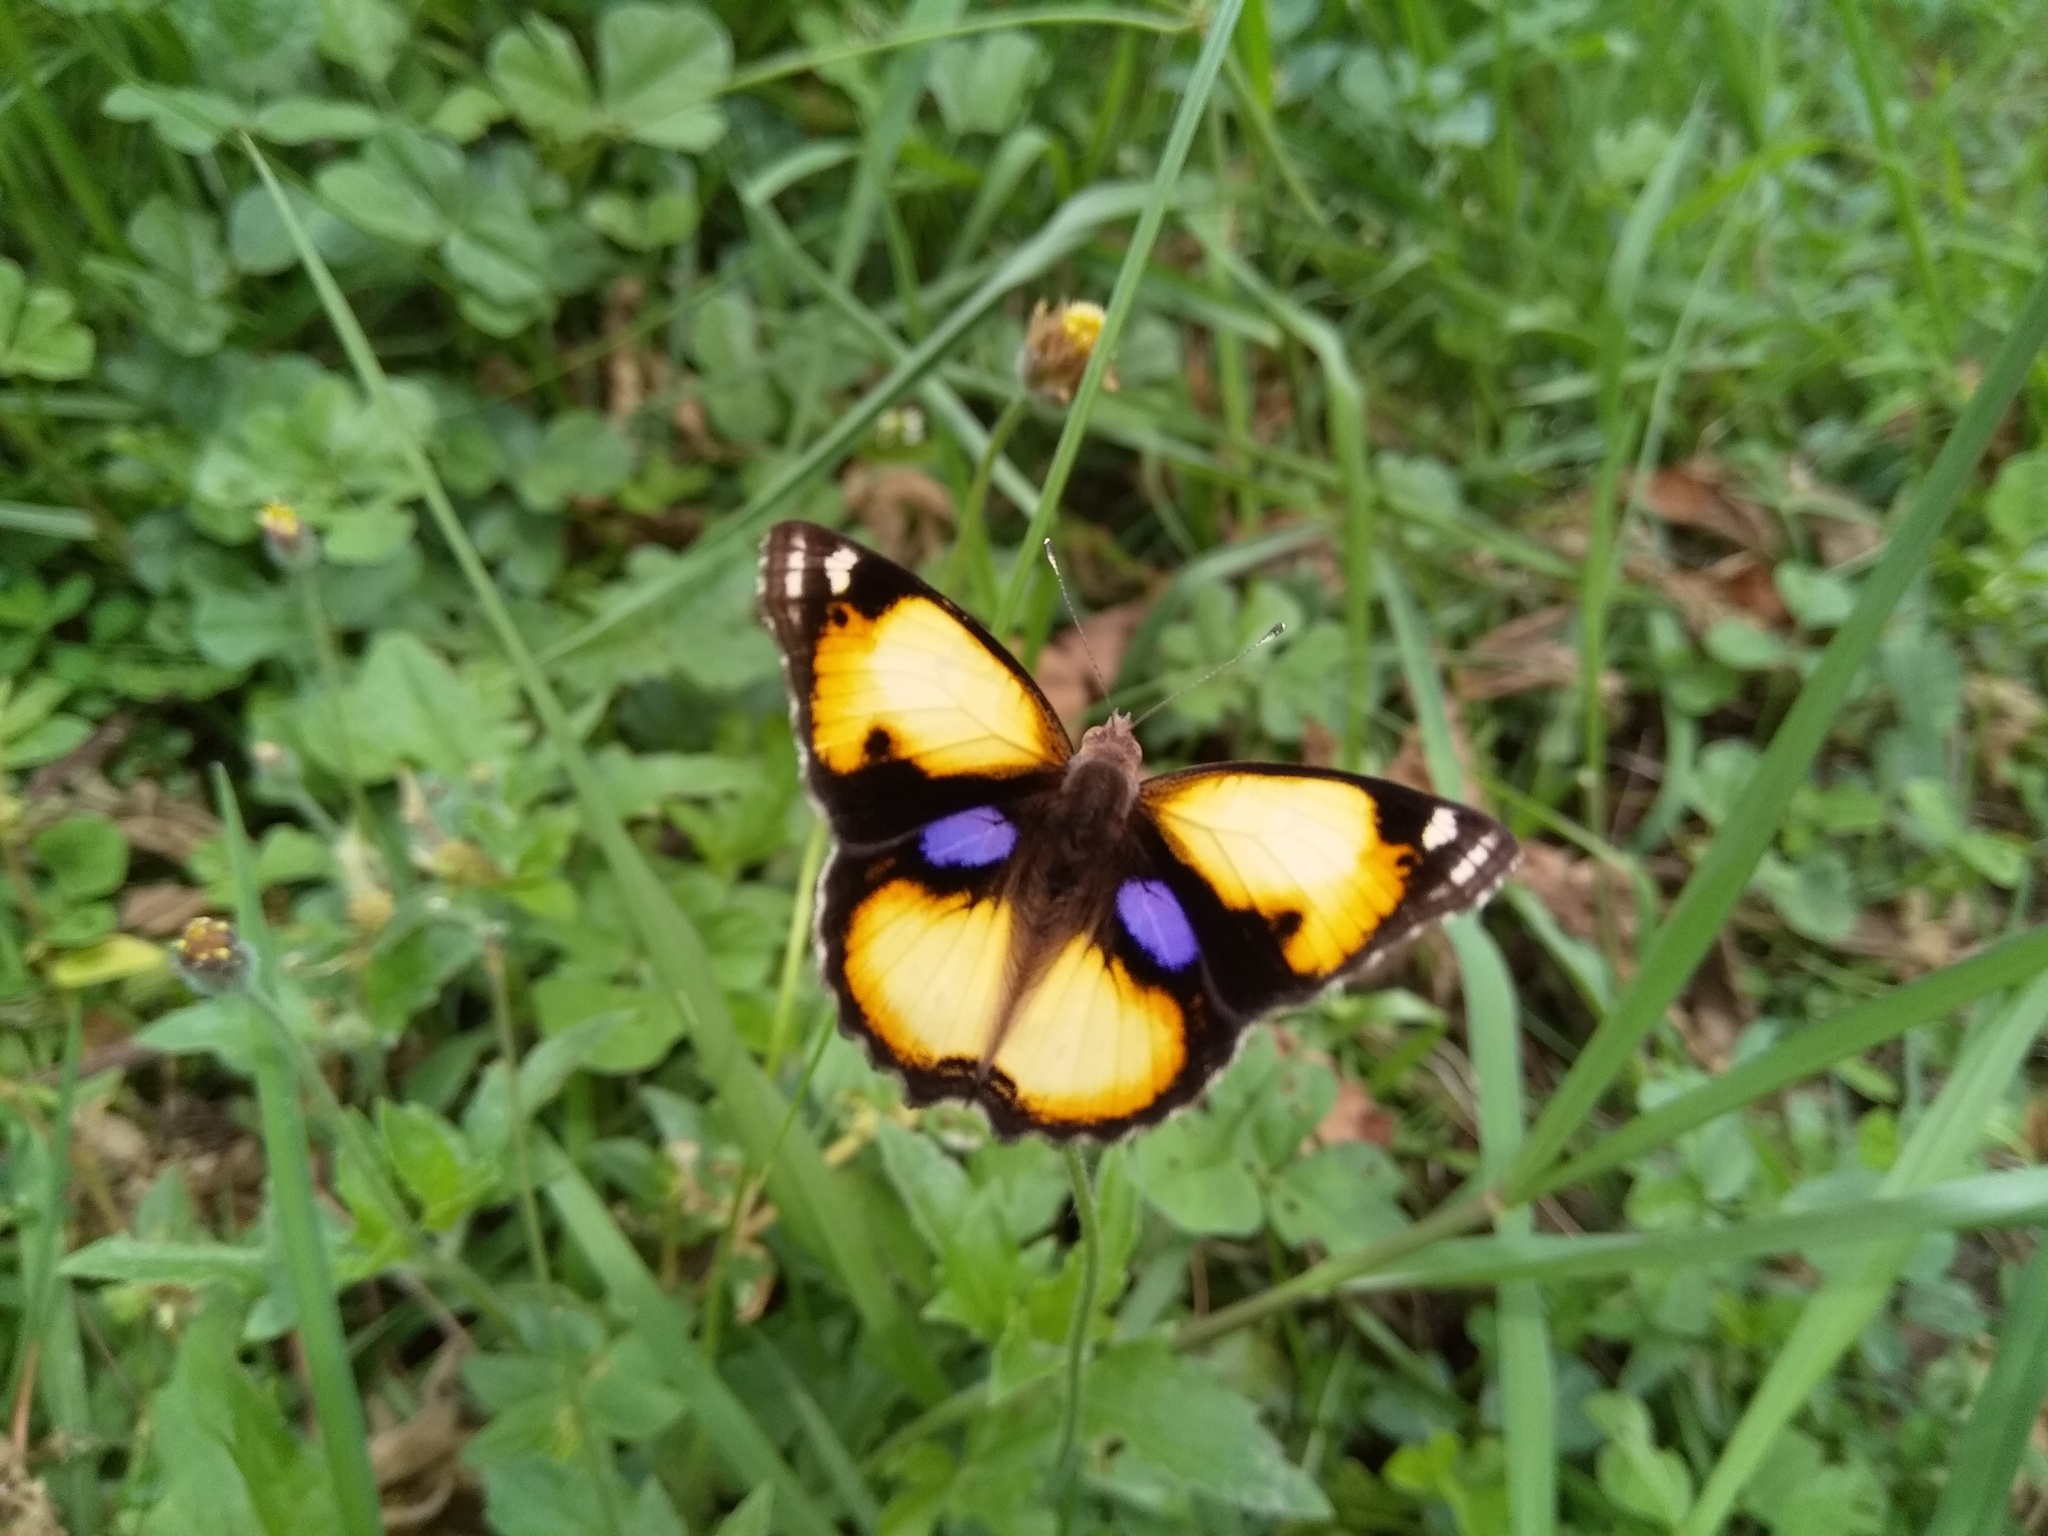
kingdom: Animalia
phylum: Arthropoda
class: Insecta
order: Lepidoptera
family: Nymphalidae
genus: Junonia
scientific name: Junonia hierta
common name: Yellow pansy
